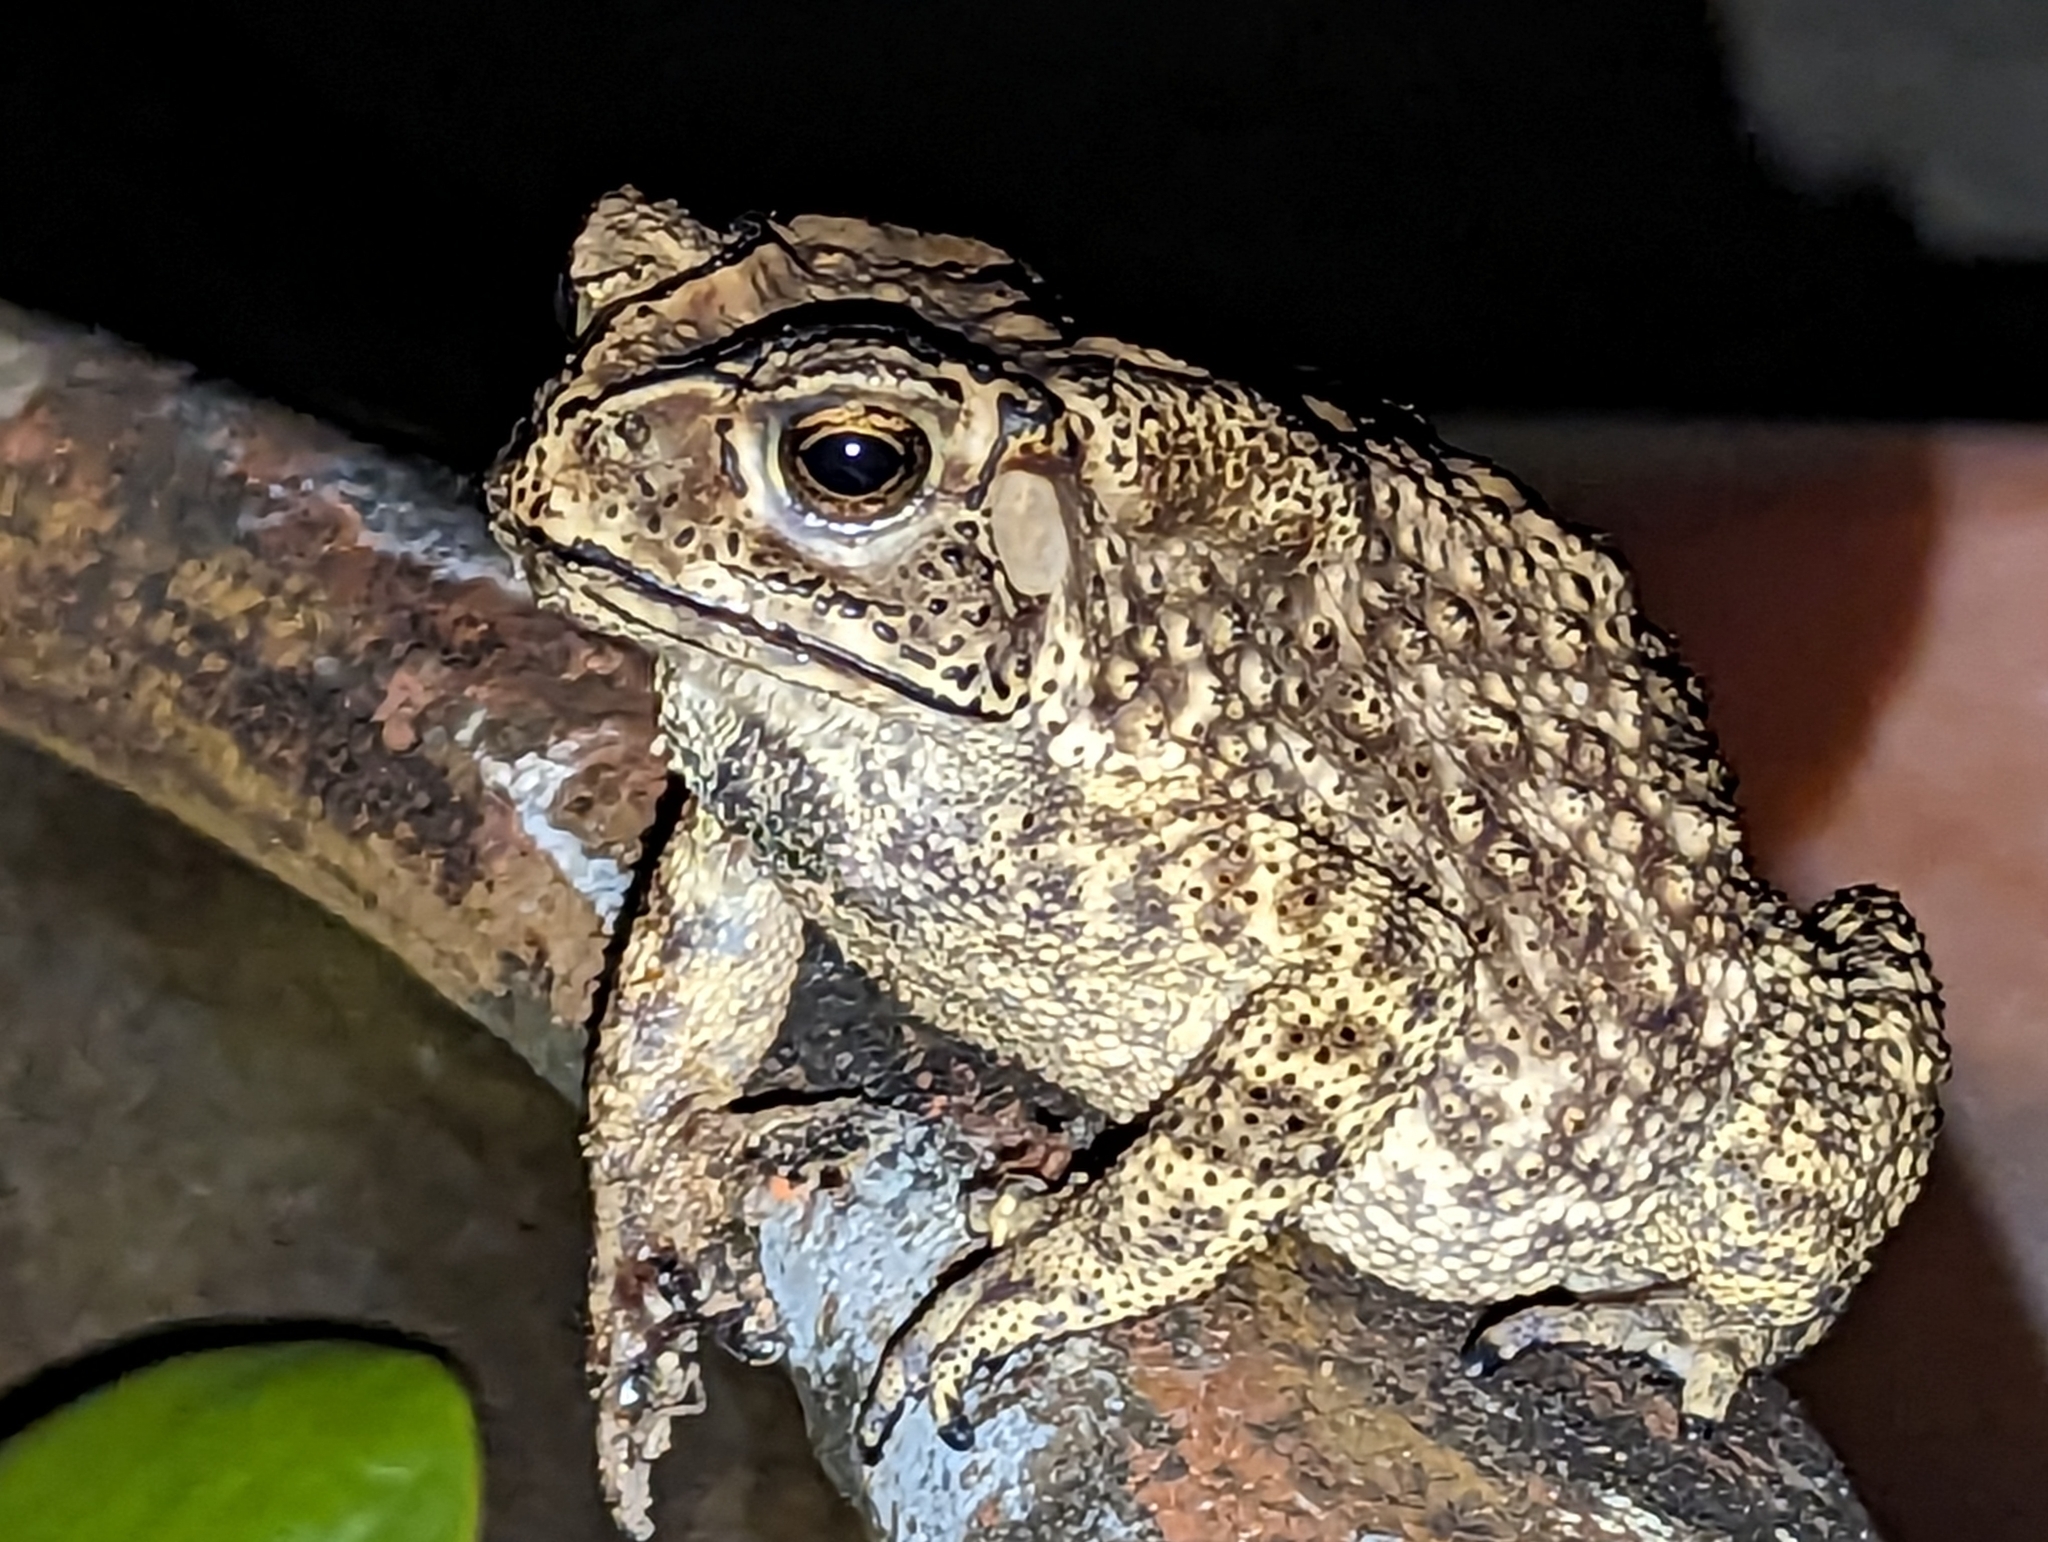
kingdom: Animalia
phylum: Chordata
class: Amphibia
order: Anura
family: Bufonidae
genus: Duttaphrynus
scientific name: Duttaphrynus melanostictus
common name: Common sunda toad
